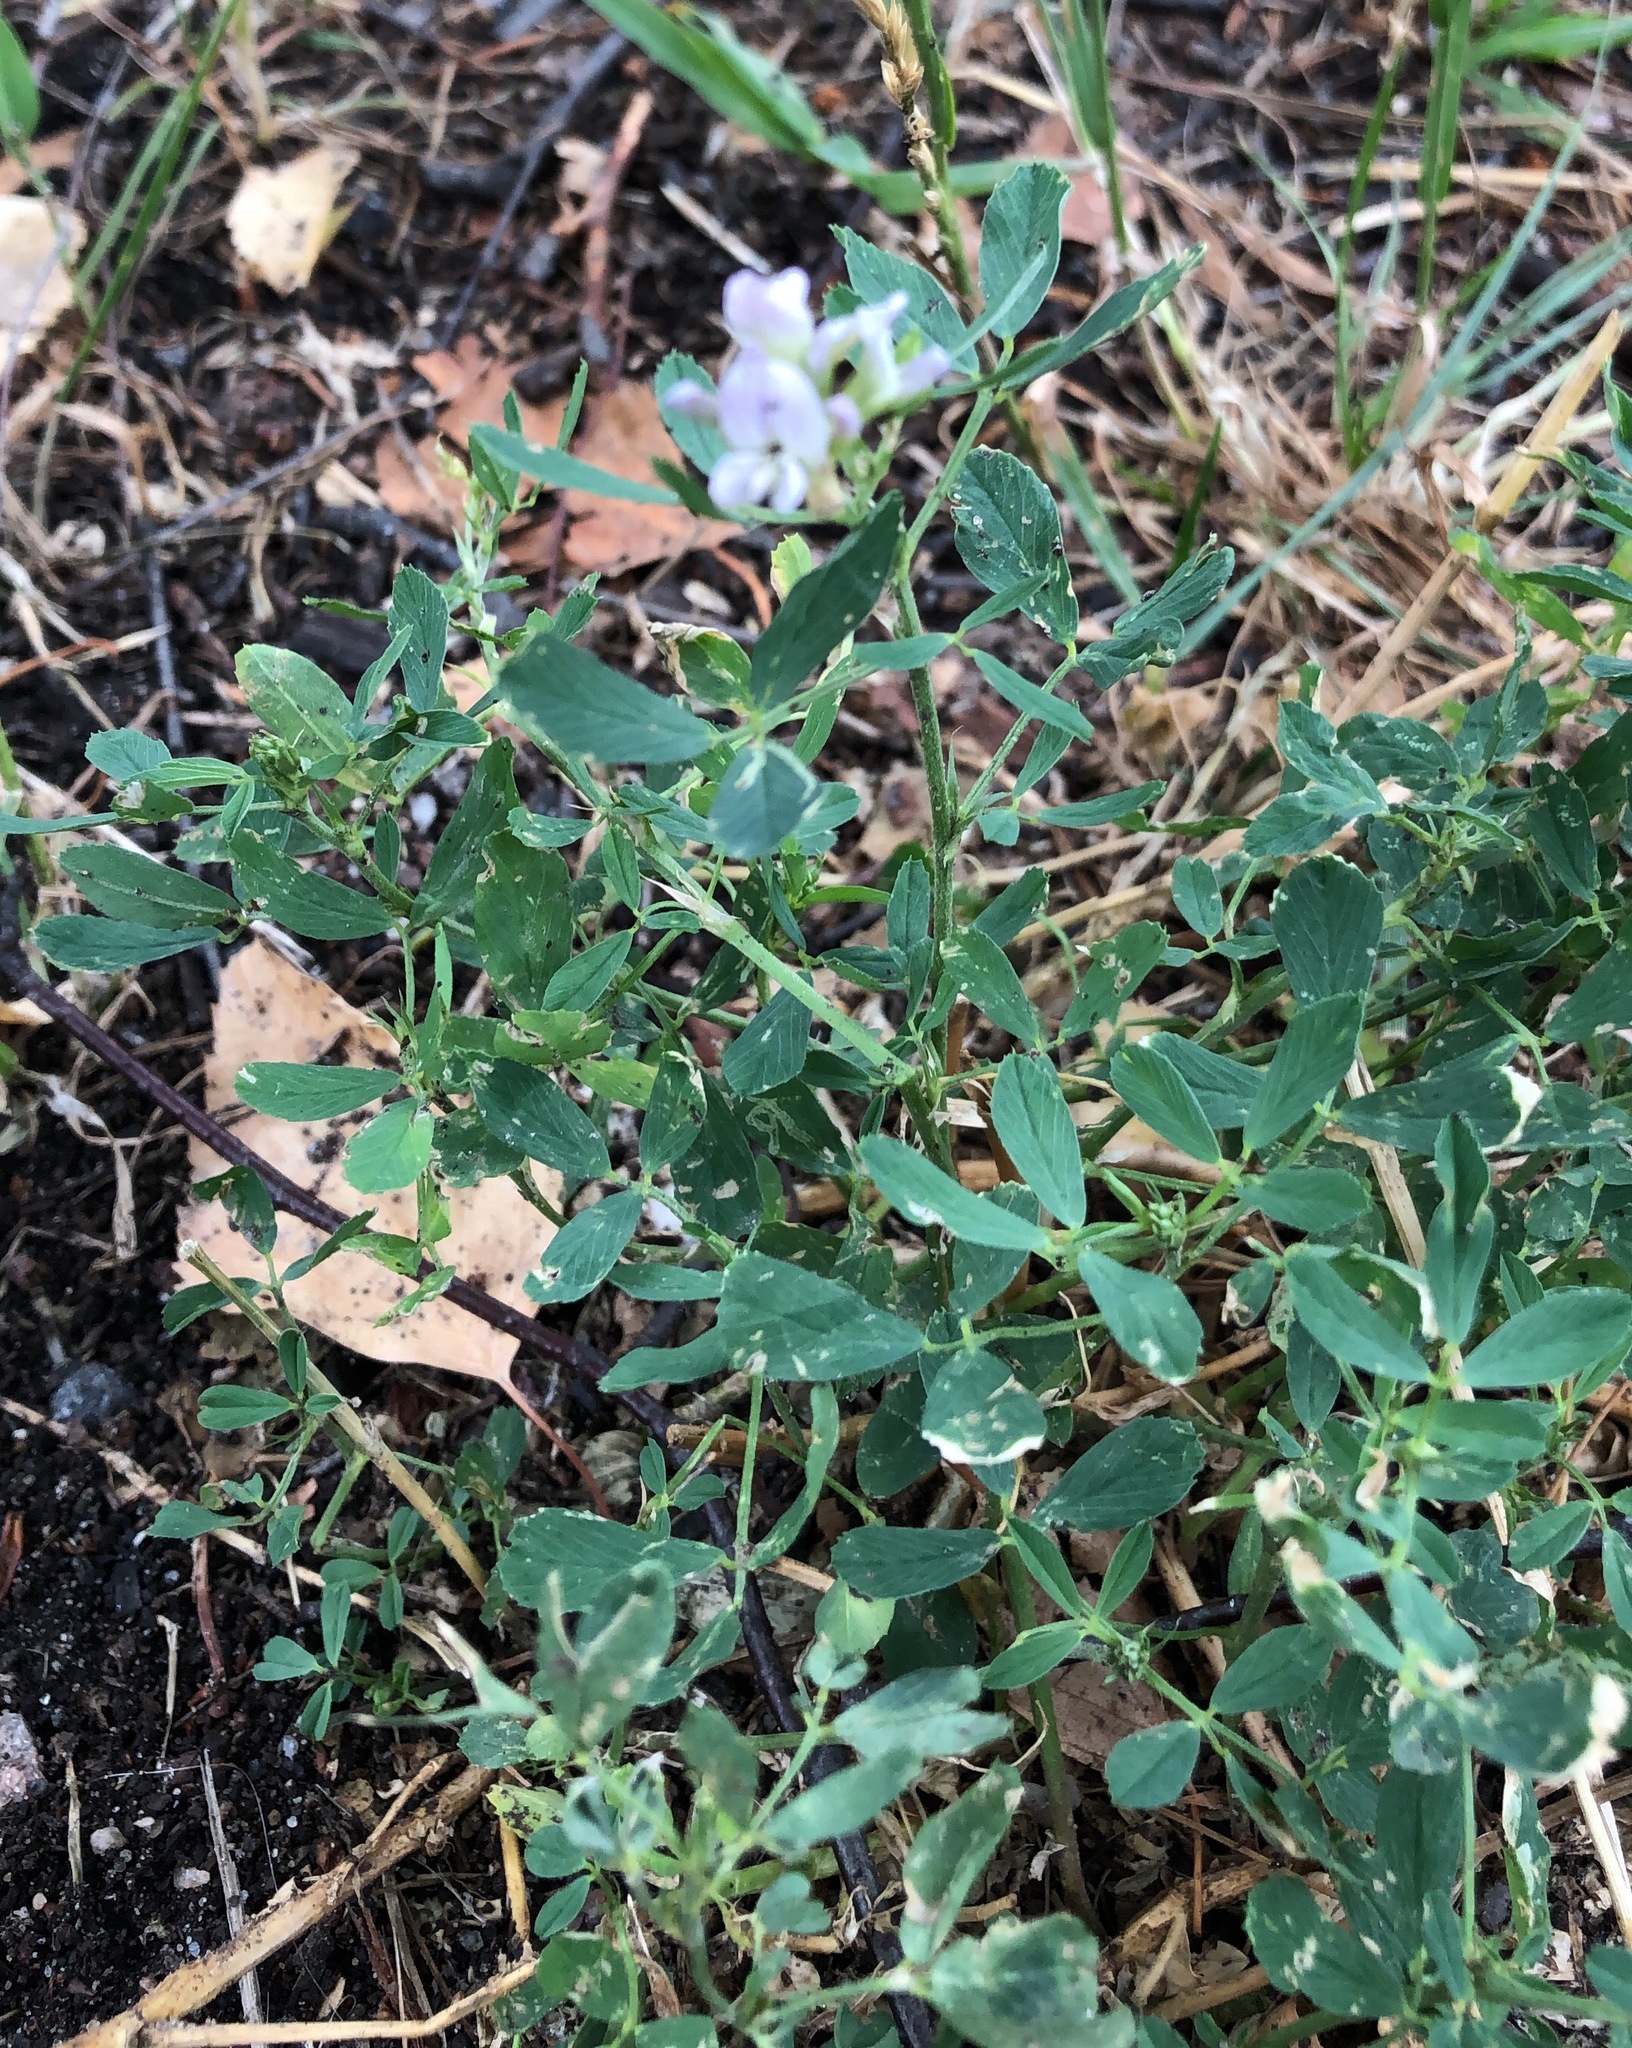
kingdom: Plantae
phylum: Tracheophyta
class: Magnoliopsida
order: Fabales
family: Fabaceae
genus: Medicago
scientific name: Medicago sativa
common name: Alfalfa
